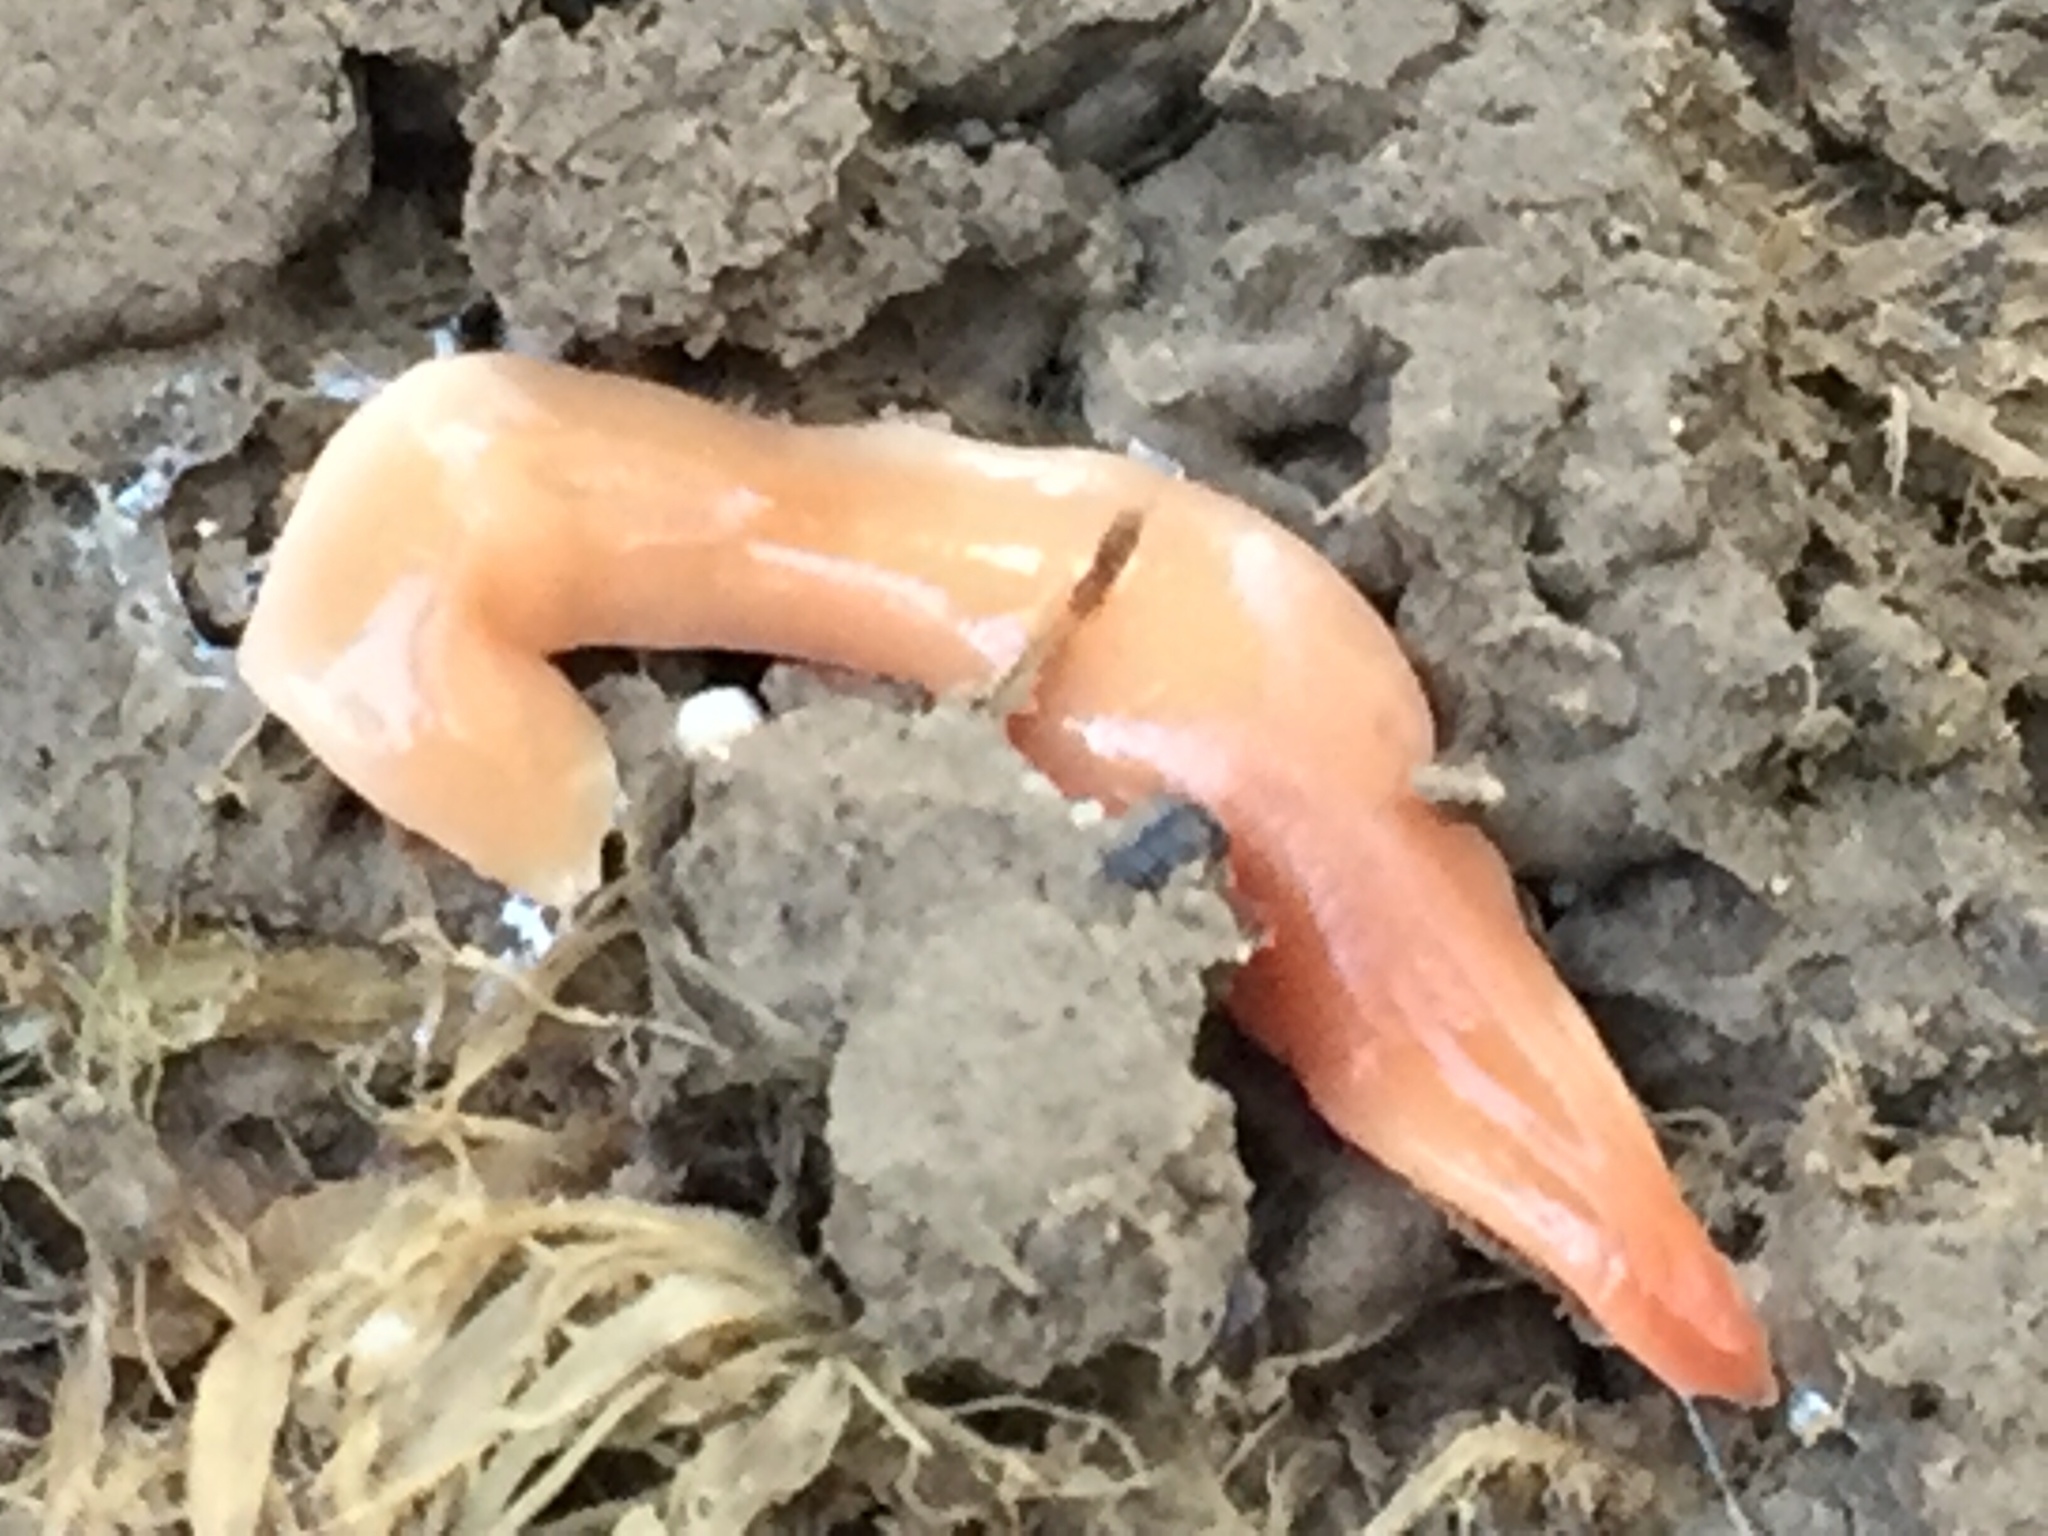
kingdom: Animalia
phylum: Platyhelminthes
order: Tricladida
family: Geoplanidae
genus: Australoplana
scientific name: Australoplana sanguinea
